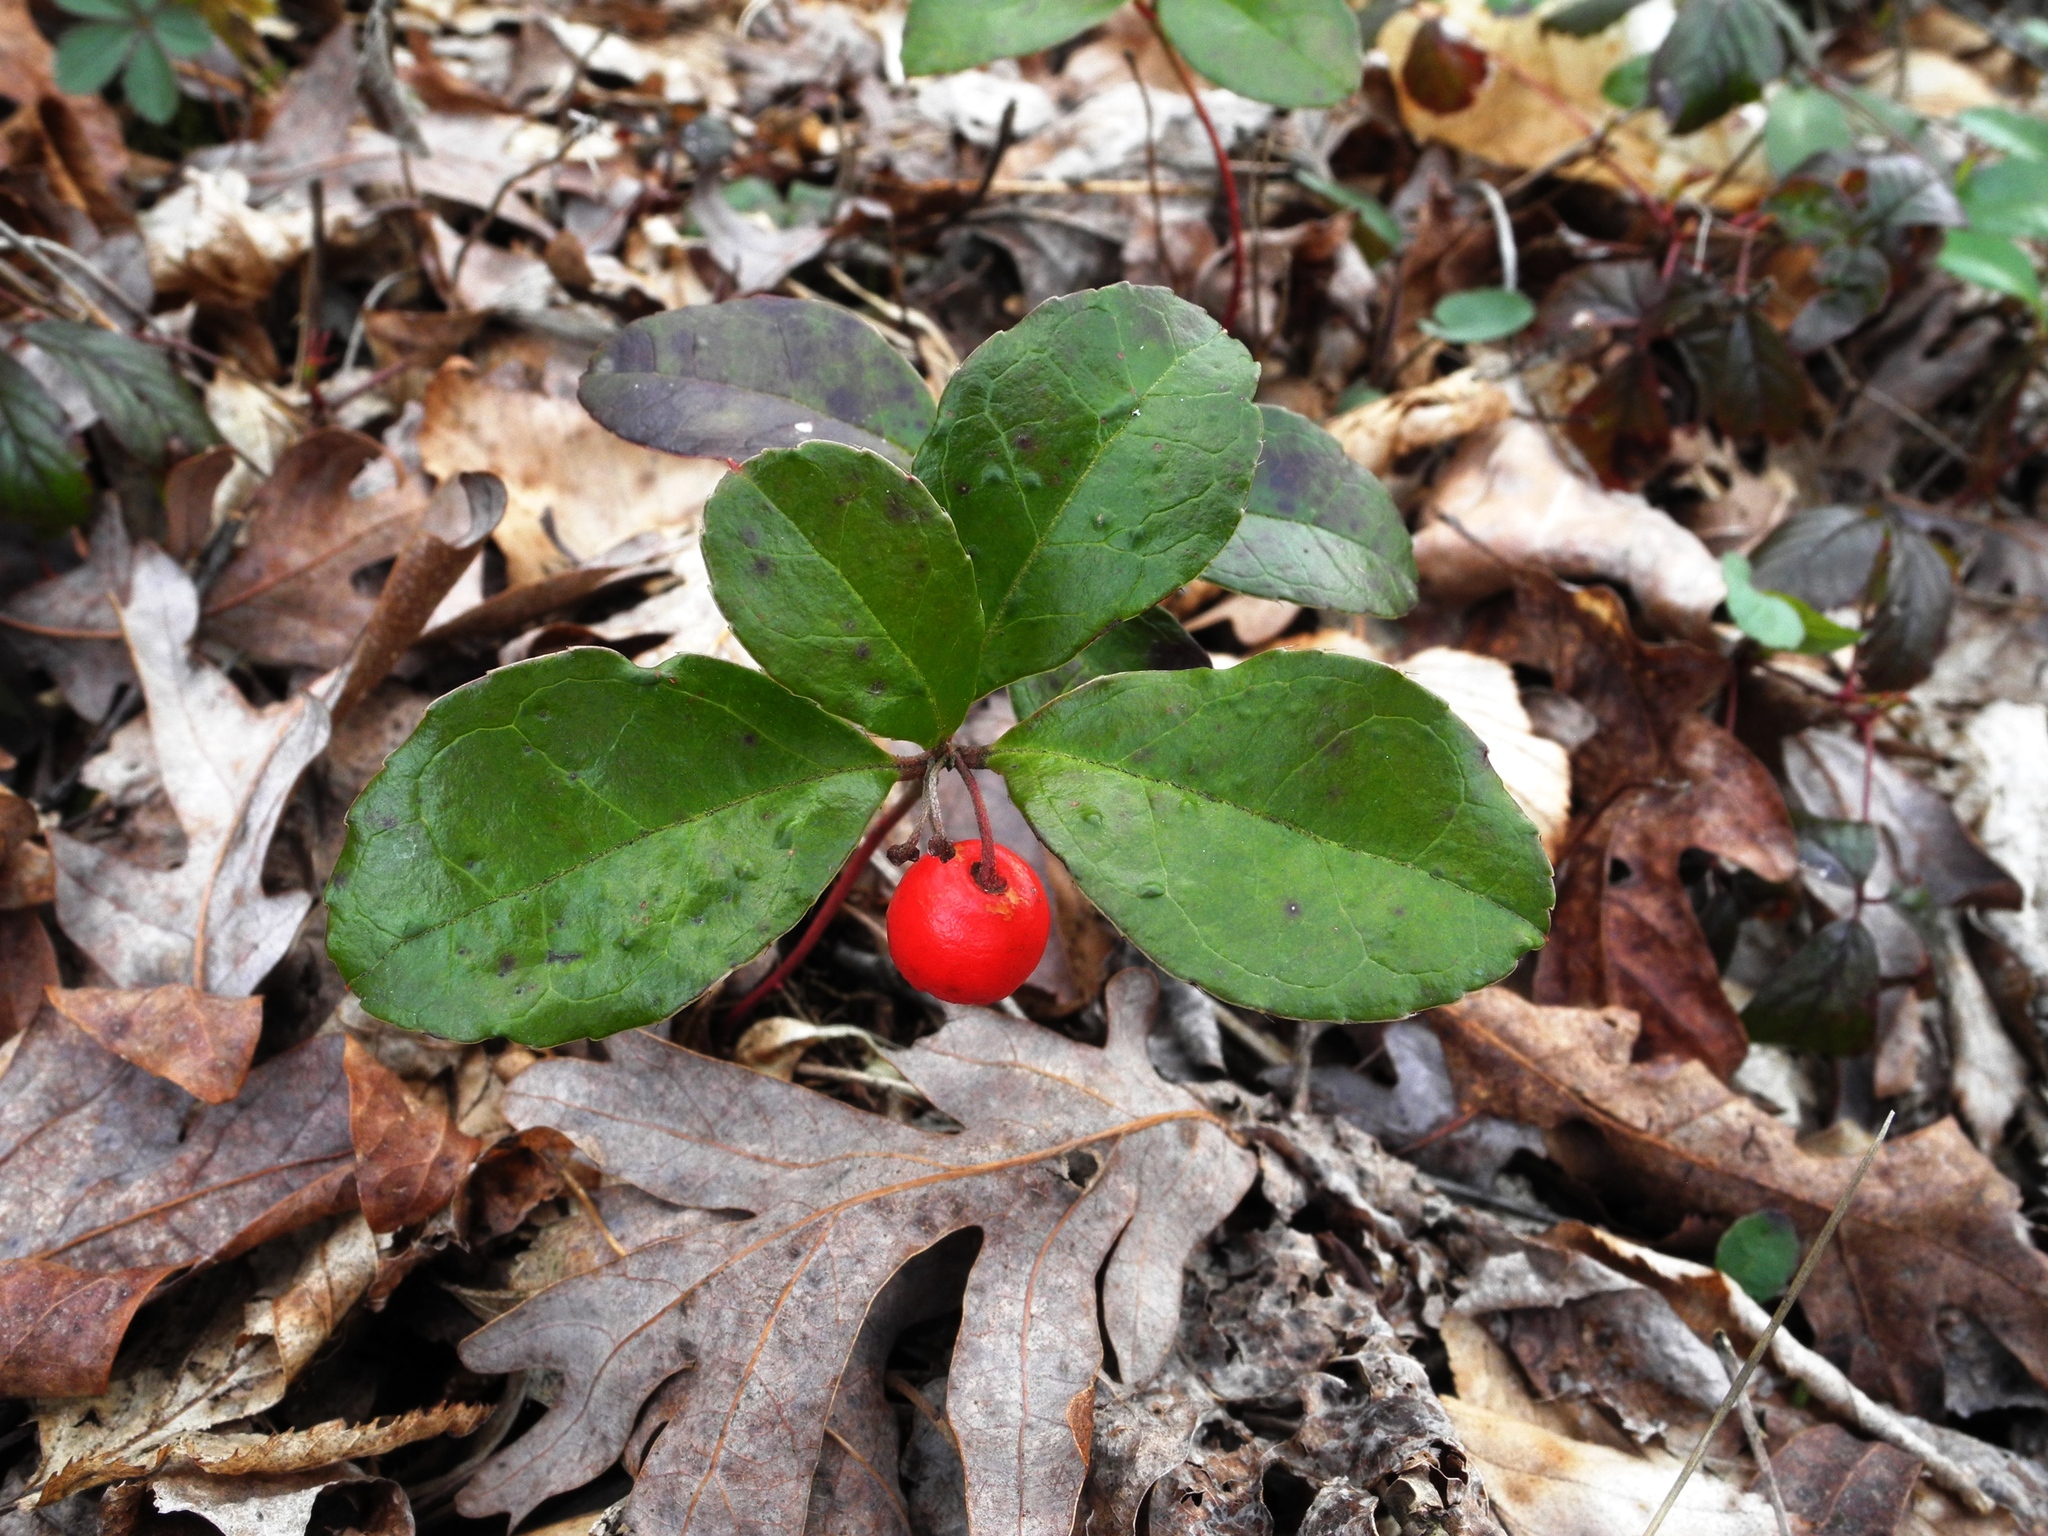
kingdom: Plantae
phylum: Tracheophyta
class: Magnoliopsida
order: Ericales
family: Ericaceae
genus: Gaultheria
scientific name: Gaultheria procumbens
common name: Checkerberry
